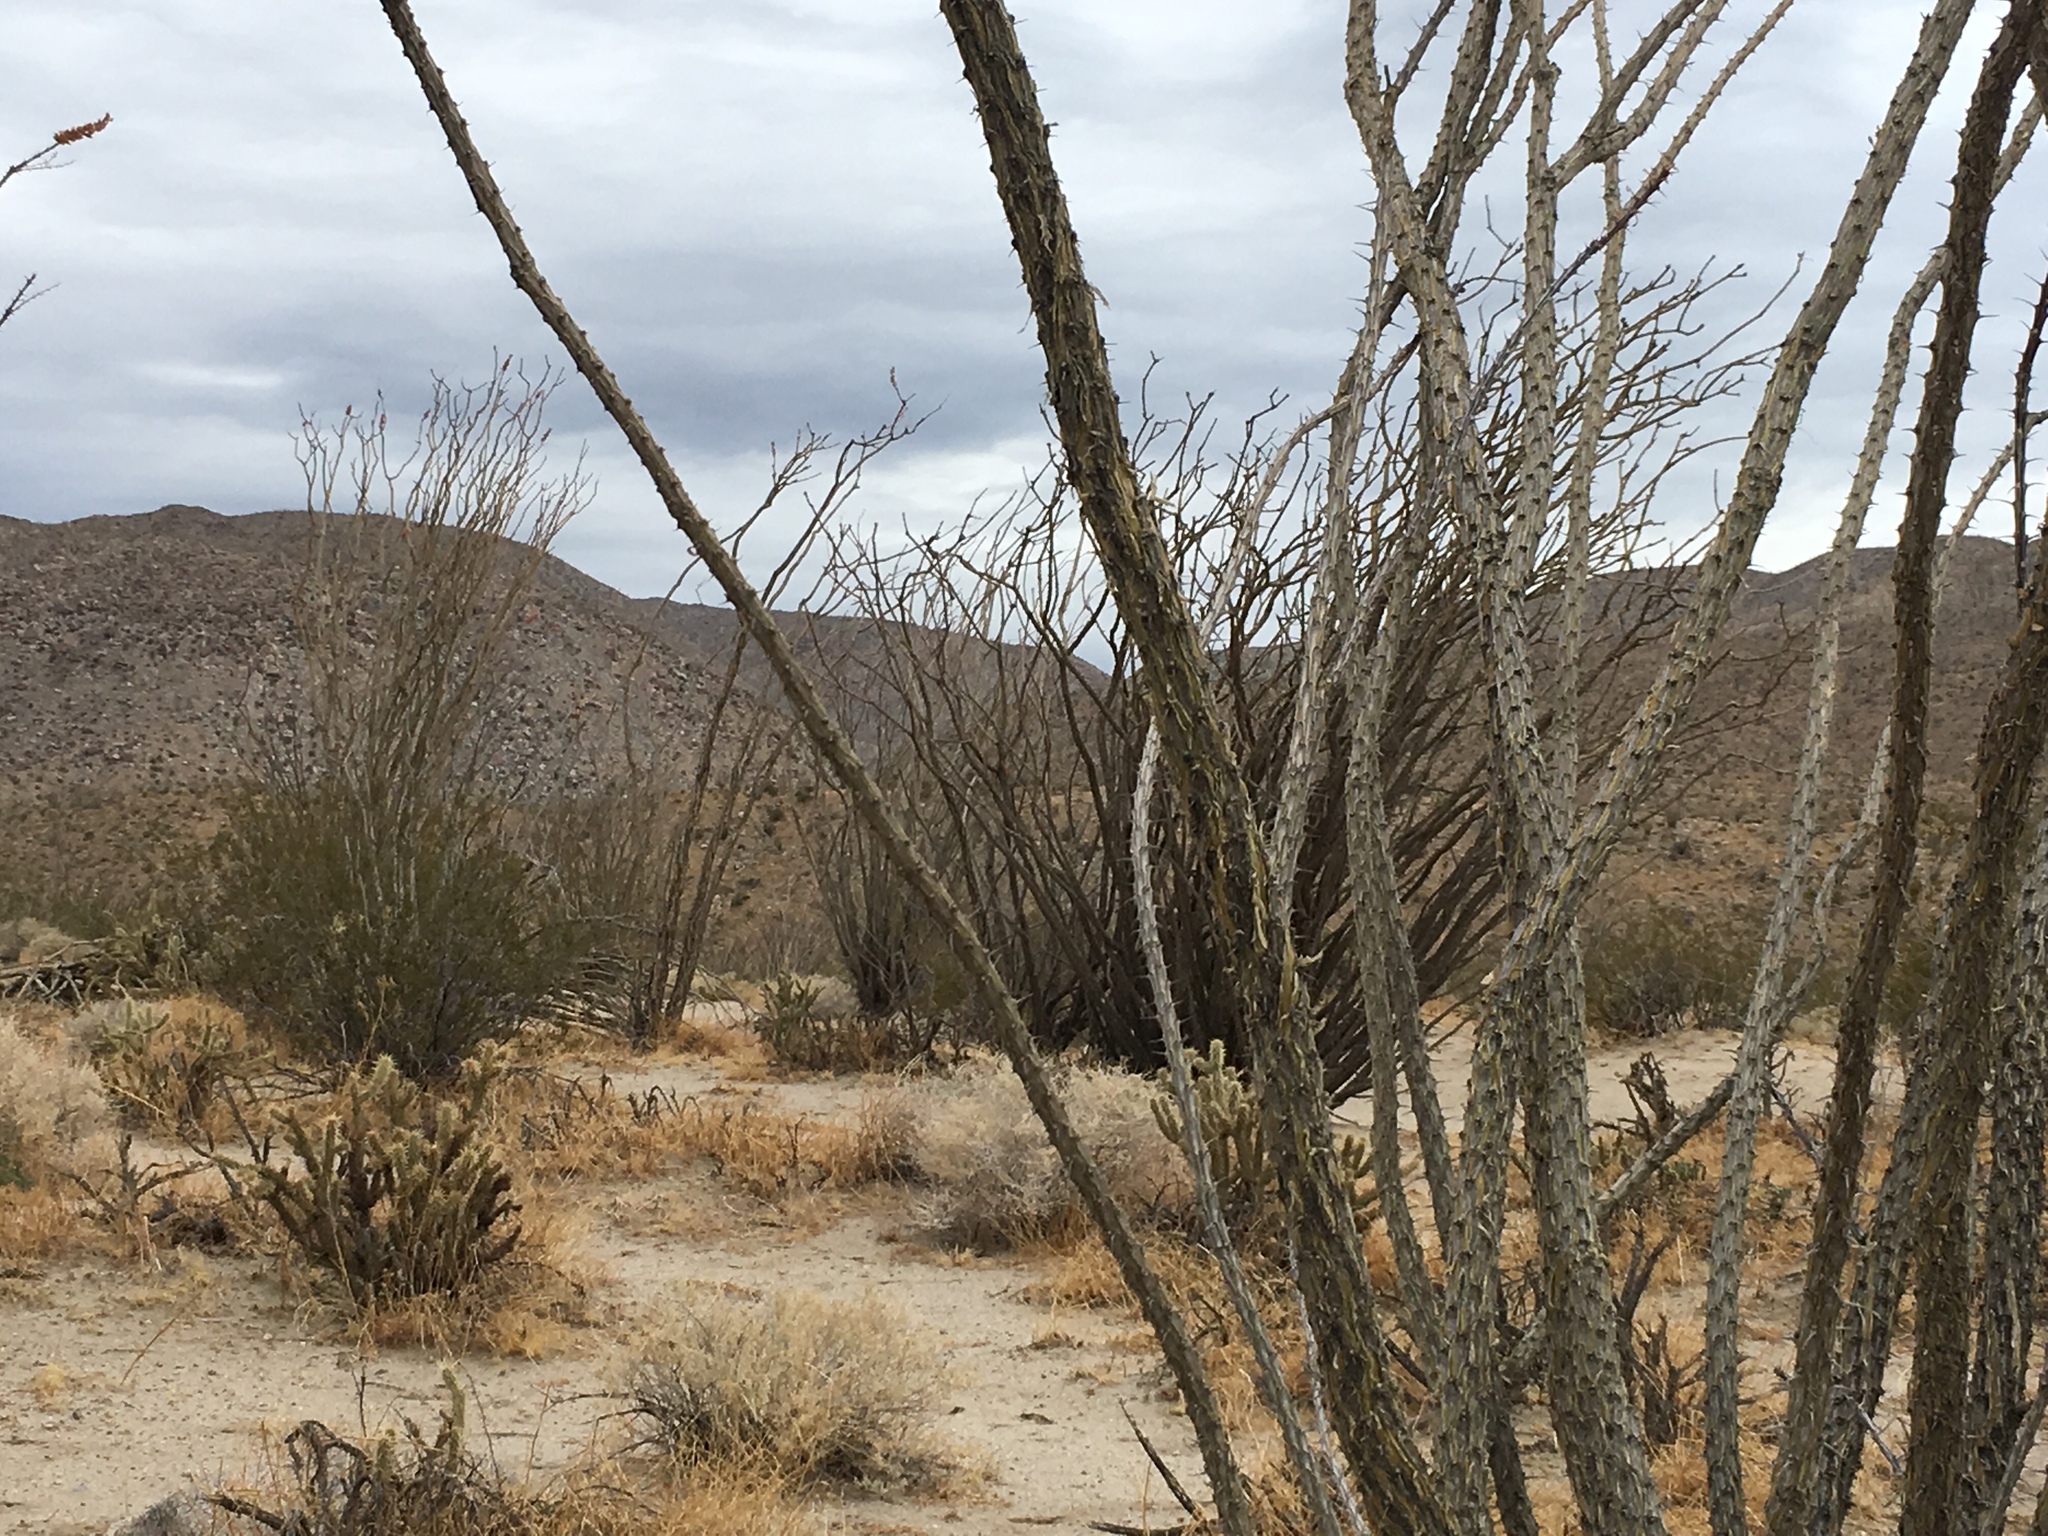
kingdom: Plantae
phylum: Tracheophyta
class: Magnoliopsida
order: Ericales
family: Fouquieriaceae
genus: Fouquieria
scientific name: Fouquieria splendens
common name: Vine-cactus
